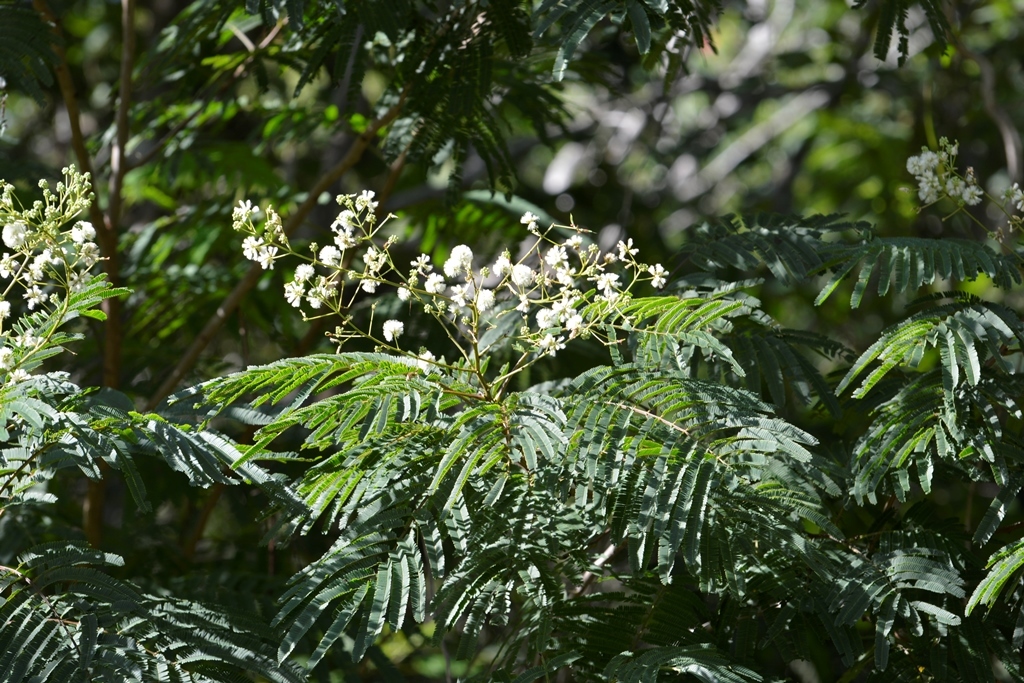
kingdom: Plantae
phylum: Tracheophyta
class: Magnoliopsida
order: Fabales
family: Fabaceae
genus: Leucaena
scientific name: Leucaena diversifolia
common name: Red leucaena
